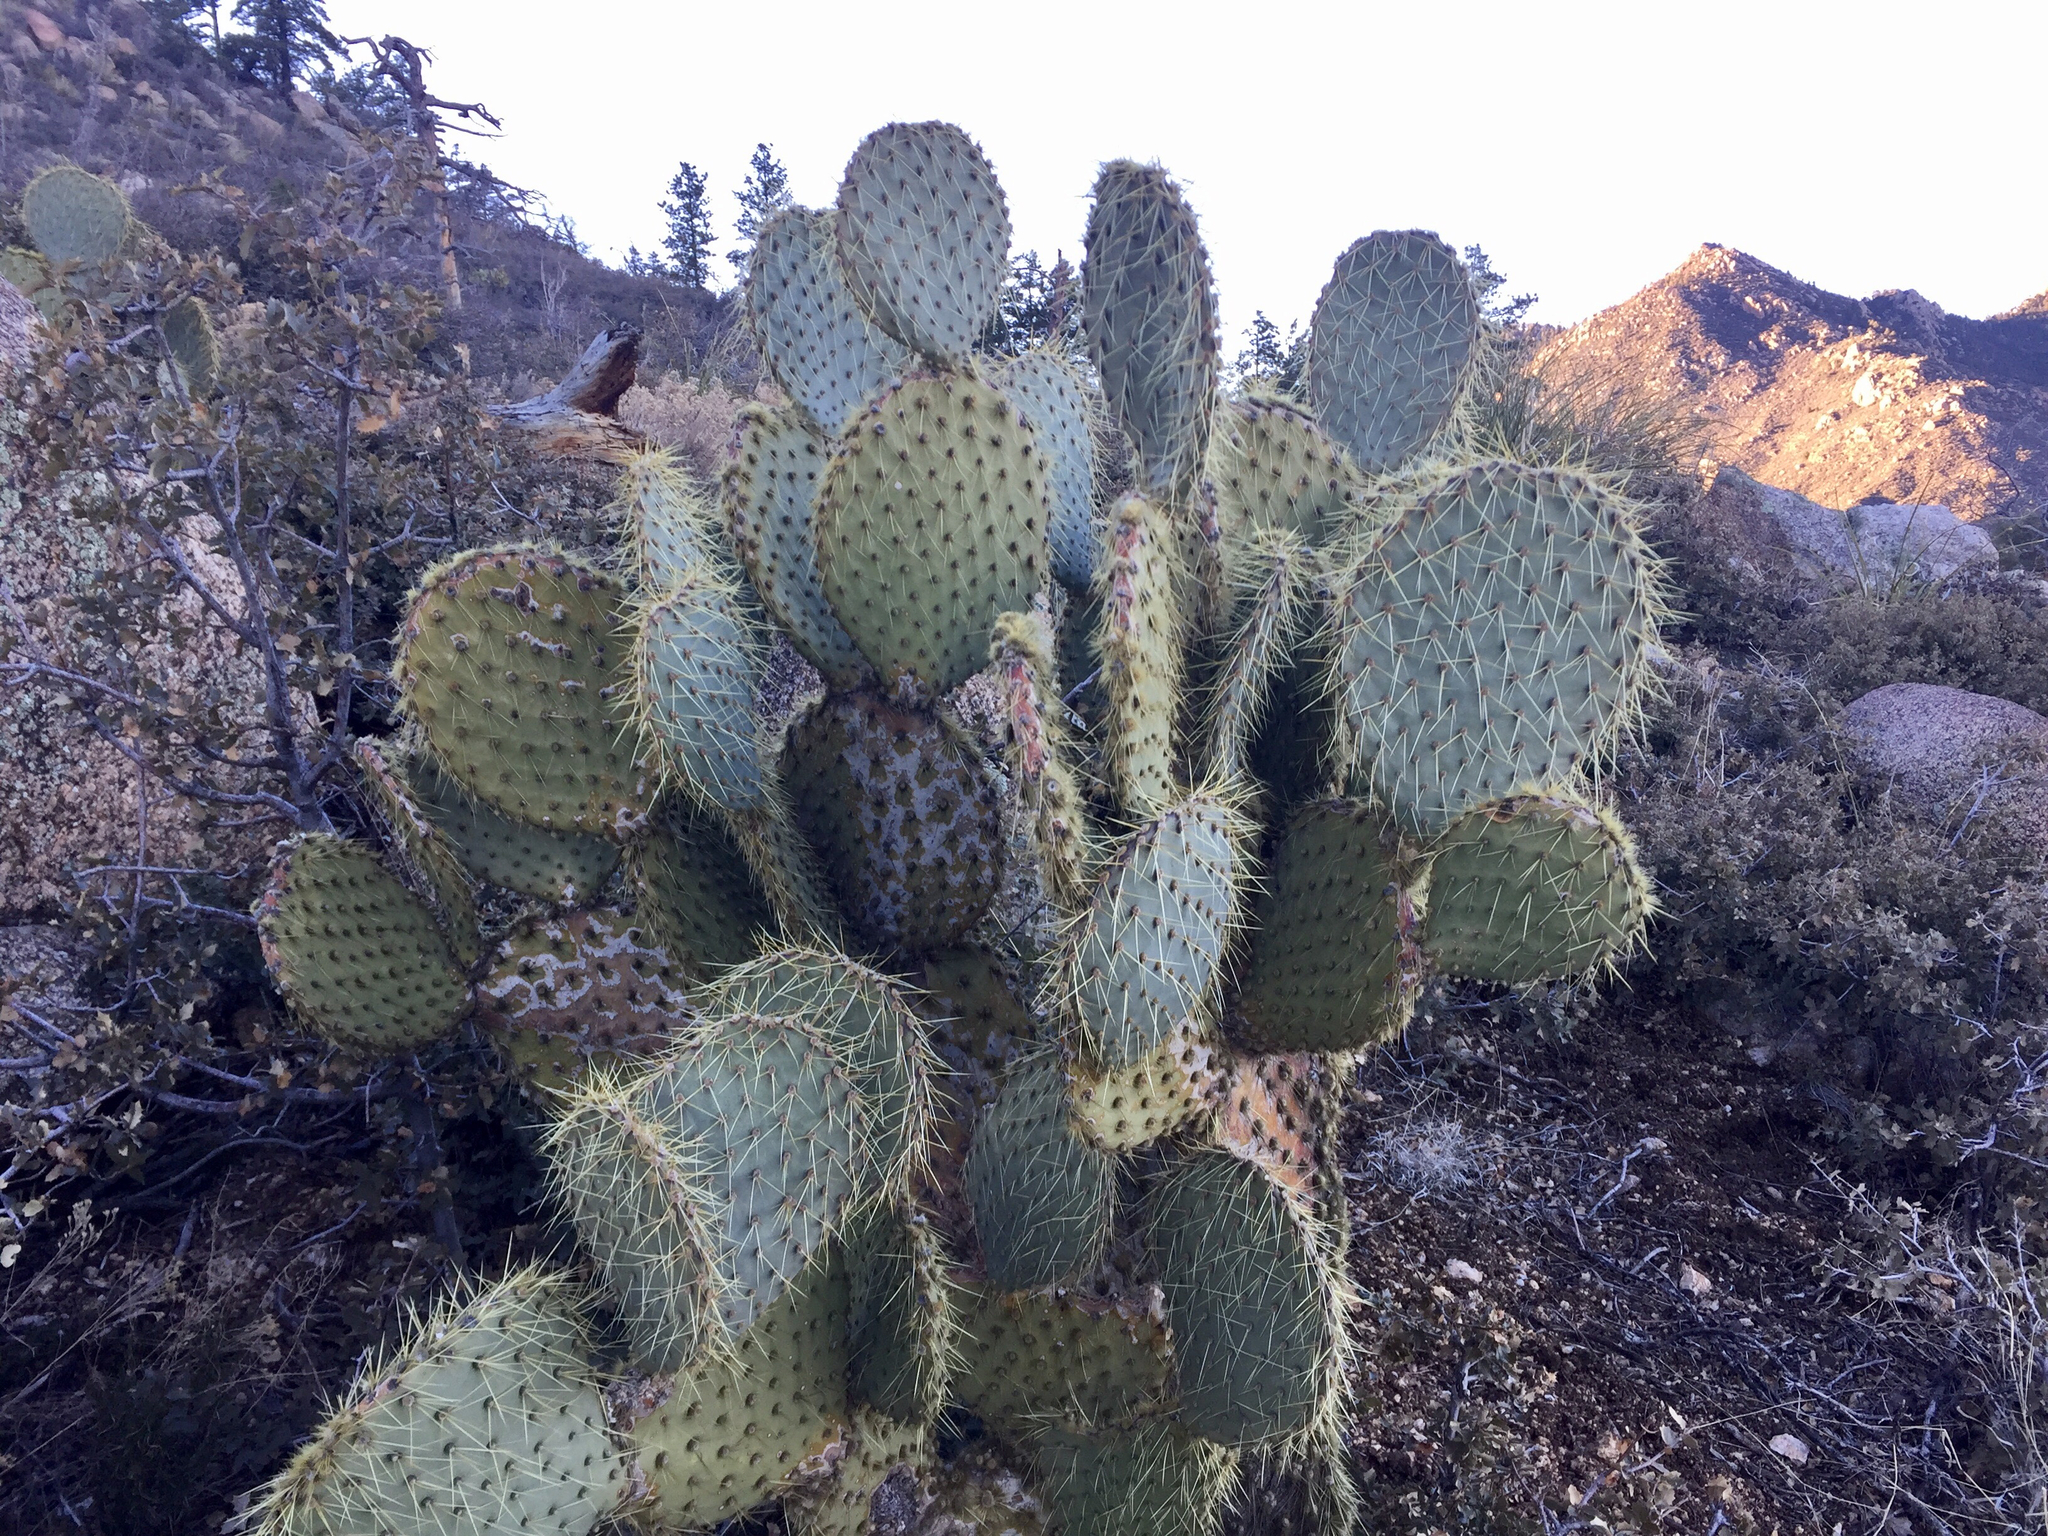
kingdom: Plantae
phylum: Tracheophyta
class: Magnoliopsida
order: Caryophyllales
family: Cactaceae
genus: Opuntia
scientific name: Opuntia chlorotica
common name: Dollar-joint prickly-pear
